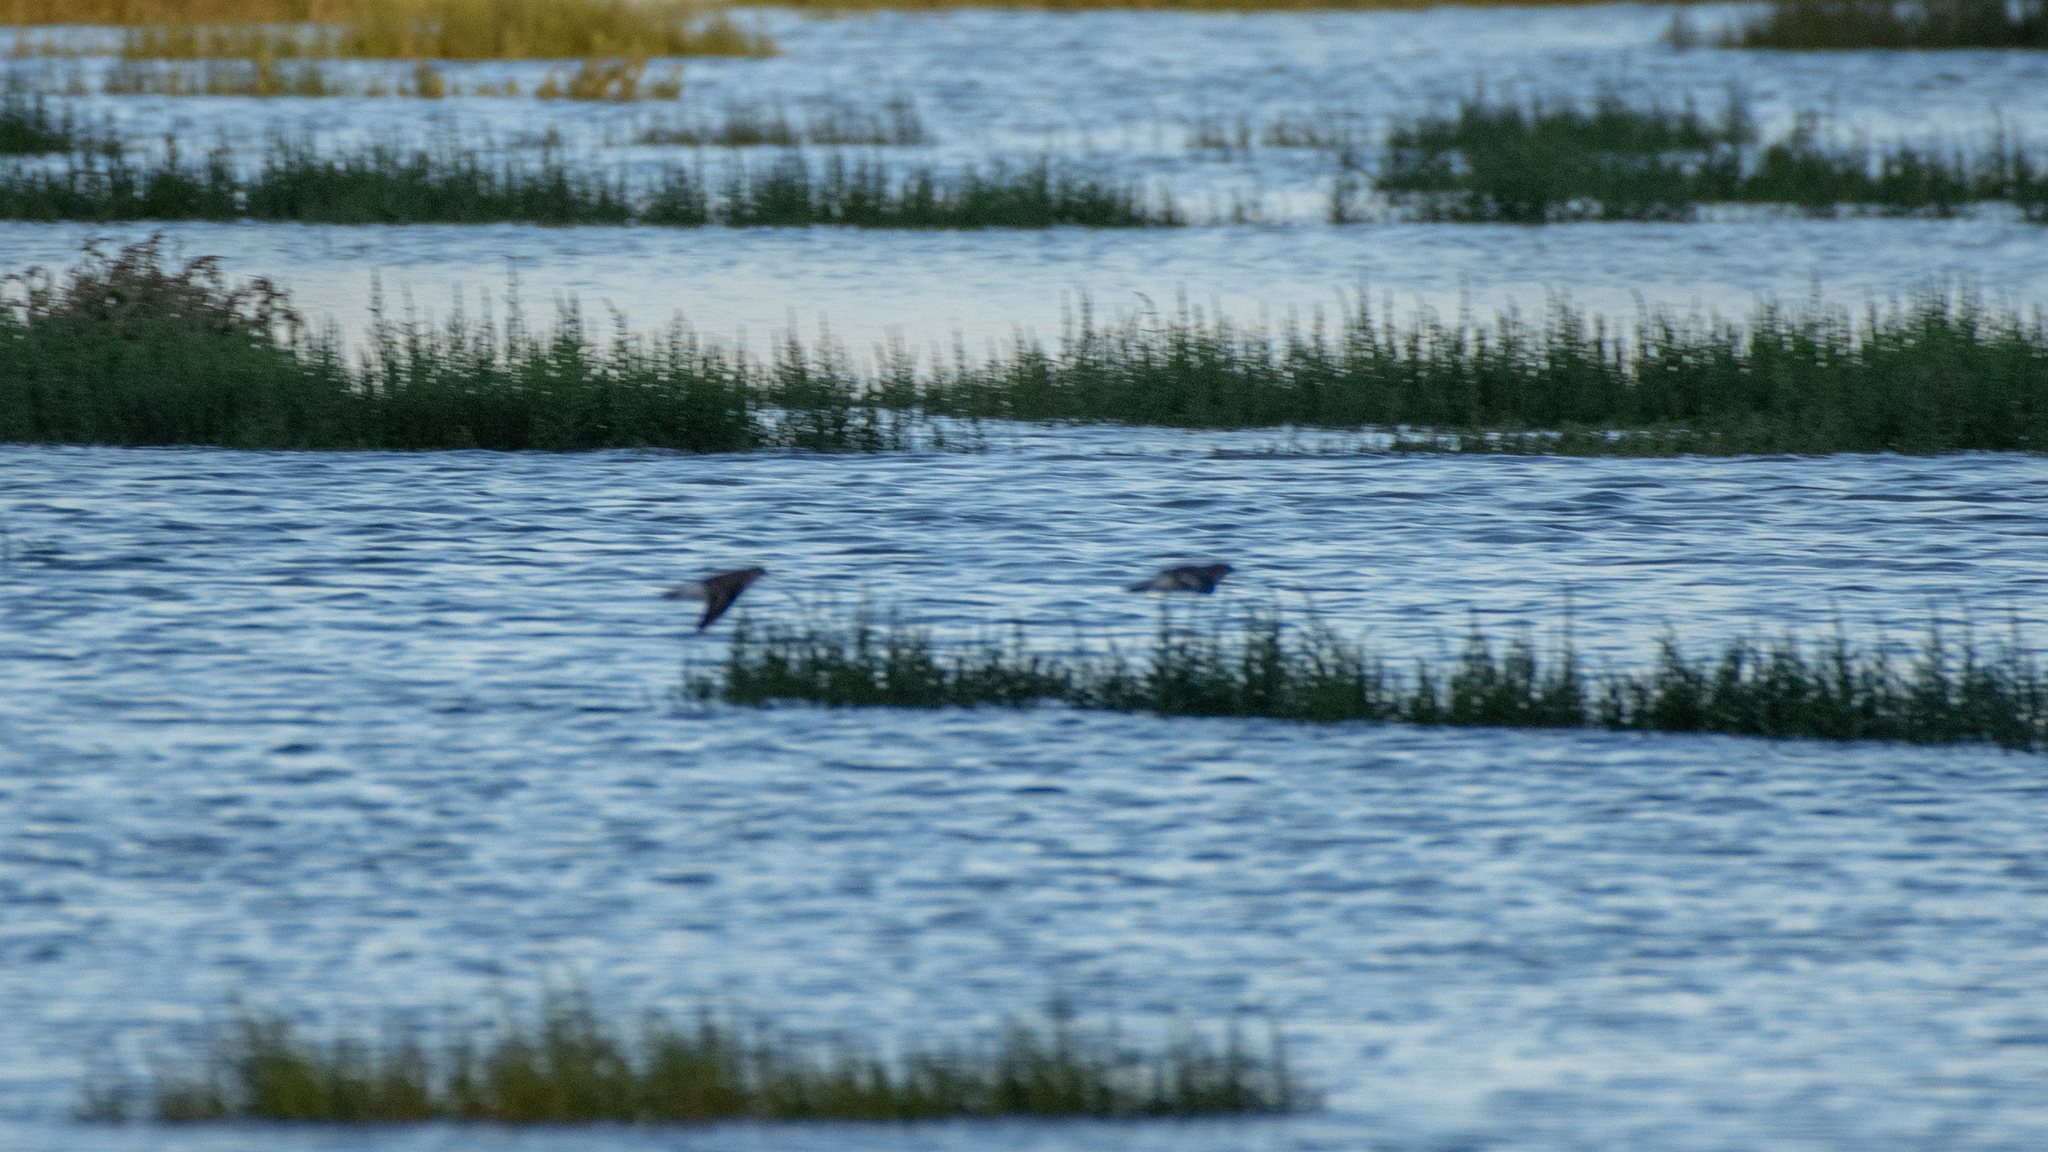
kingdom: Animalia
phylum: Chordata
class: Aves
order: Charadriiformes
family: Scolopacidae
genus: Actitis
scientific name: Actitis hypoleucos
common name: Common sandpiper
